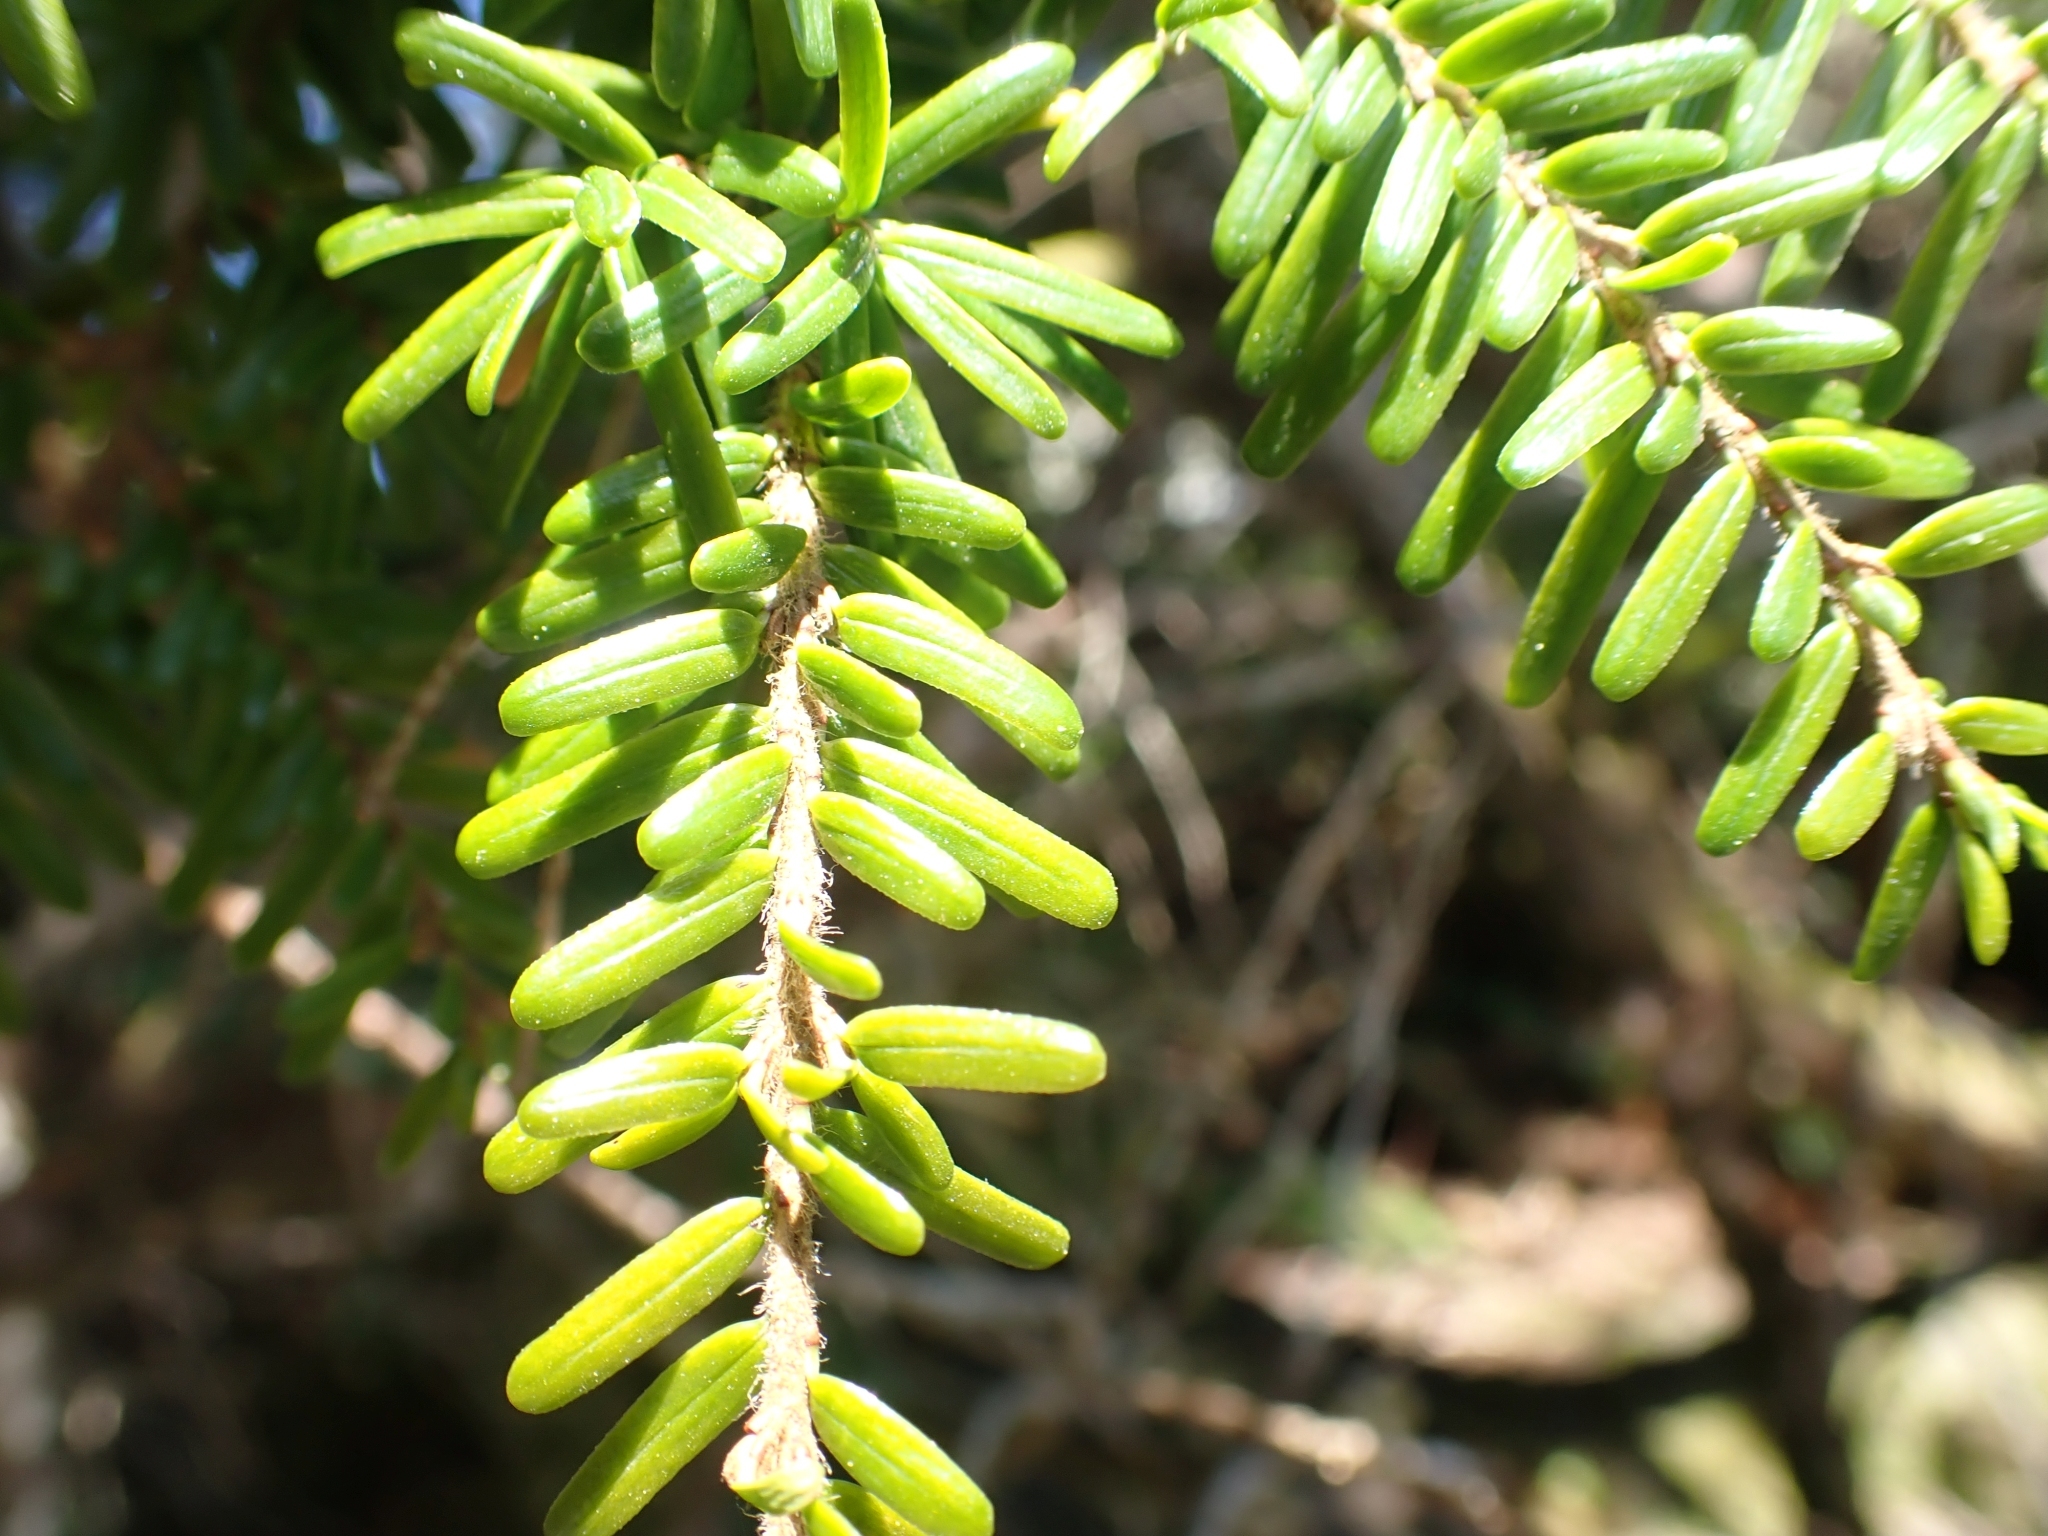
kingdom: Plantae
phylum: Tracheophyta
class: Pinopsida
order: Pinales
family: Pinaceae
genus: Tsuga
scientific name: Tsuga heterophylla
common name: Western hemlock
